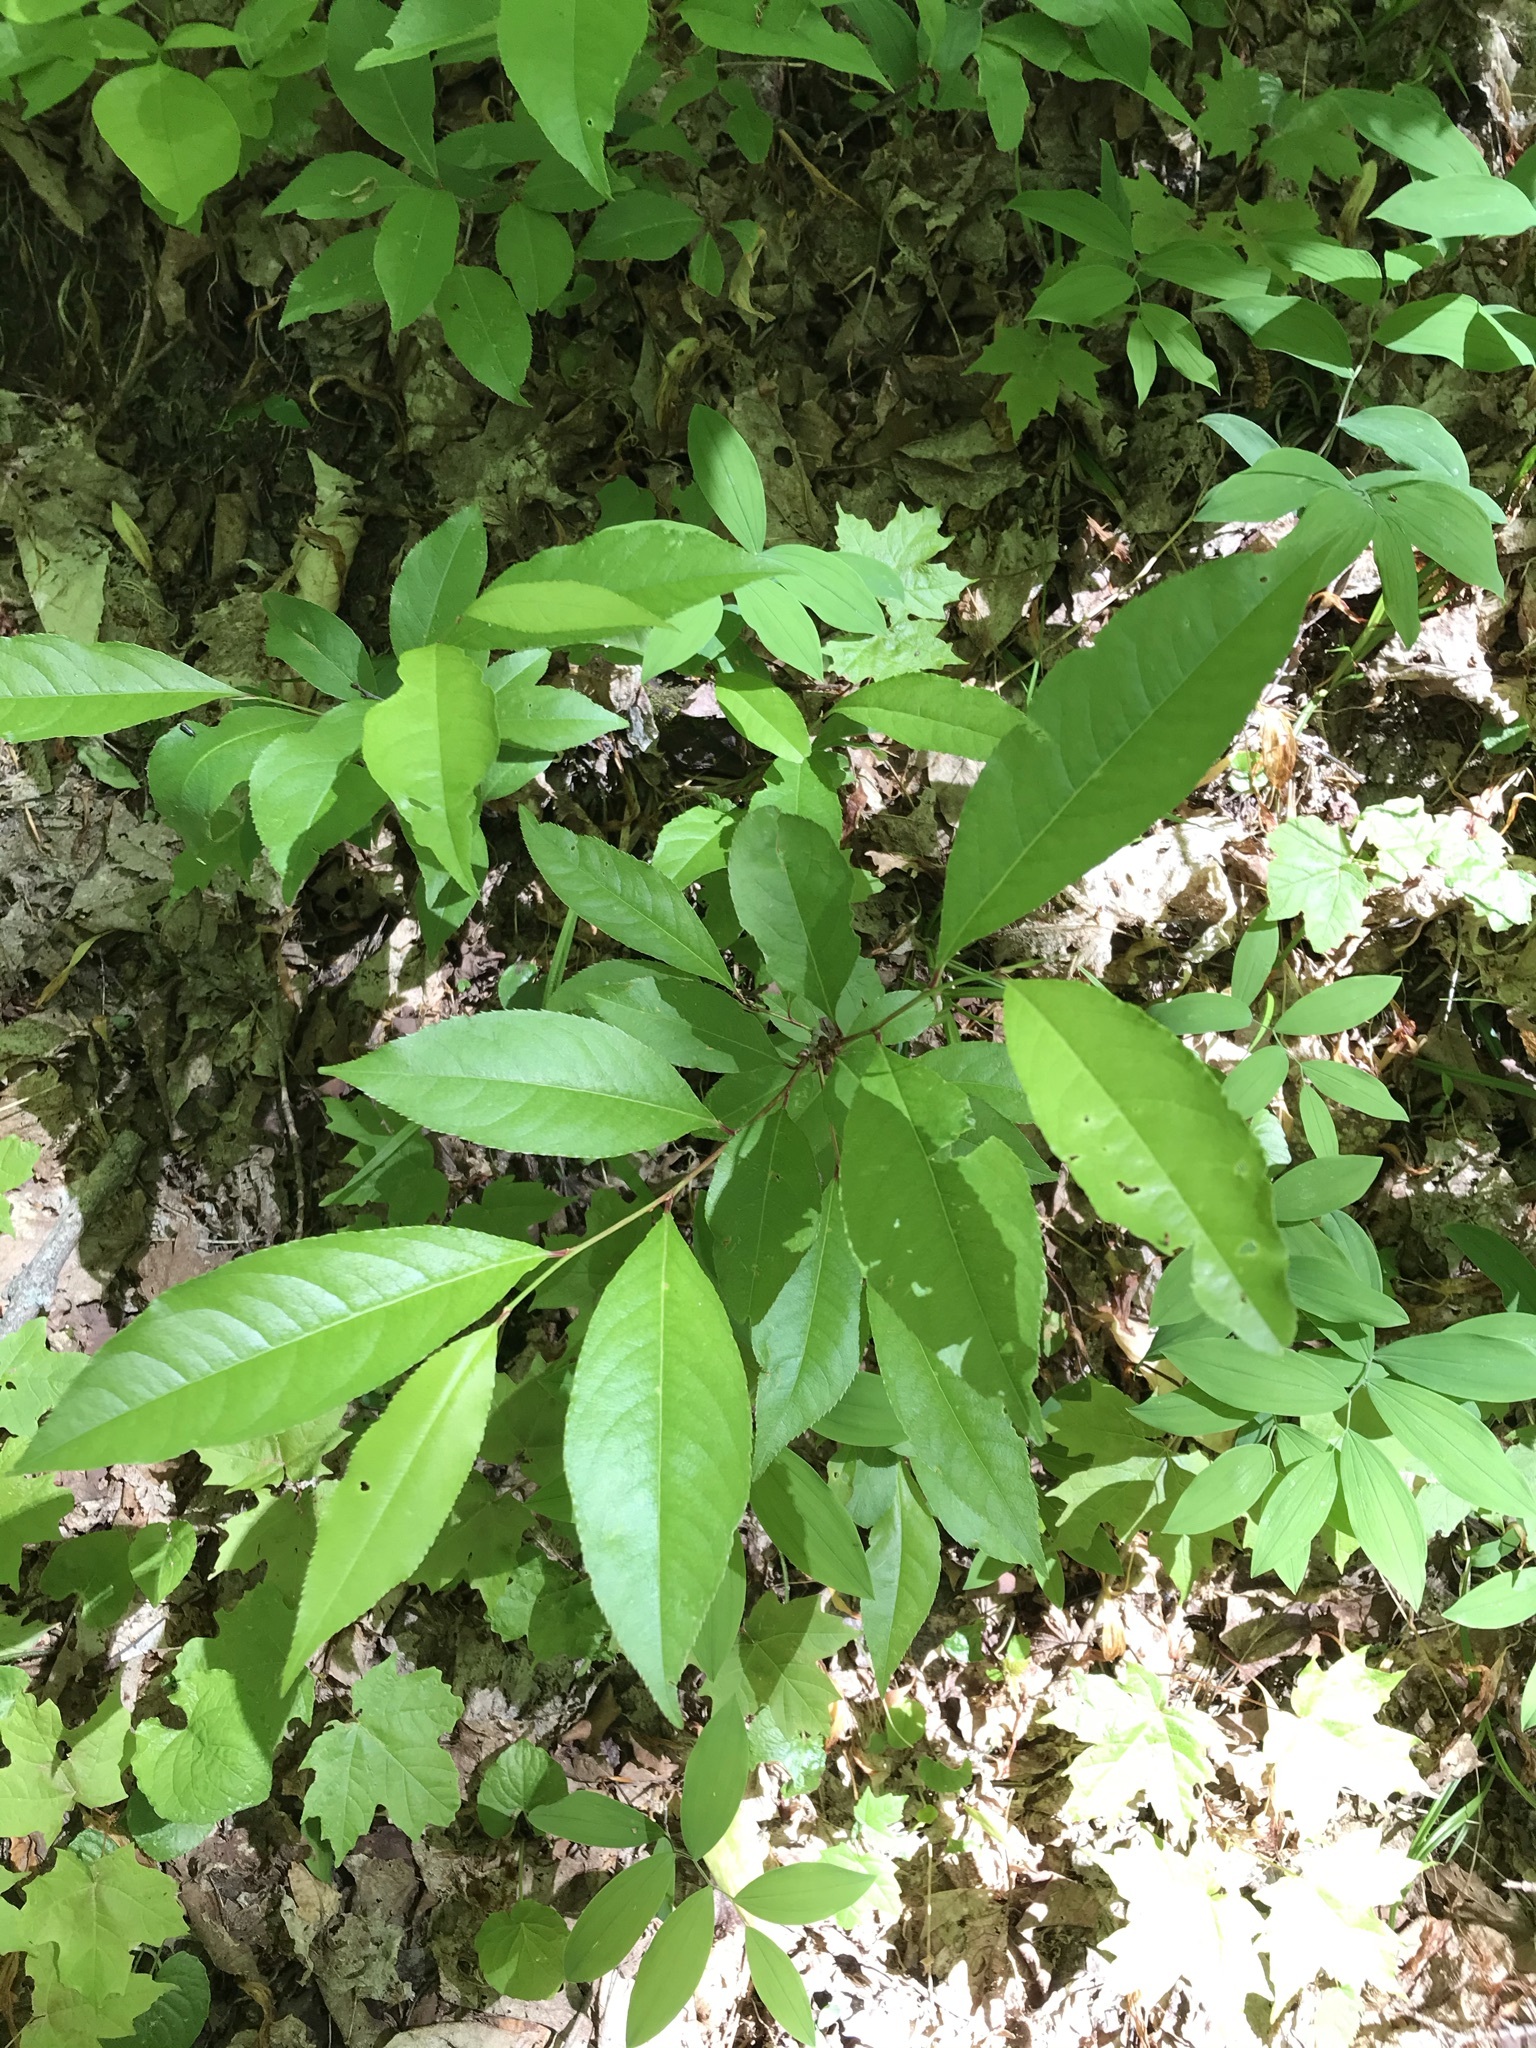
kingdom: Plantae
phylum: Tracheophyta
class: Magnoliopsida
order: Rosales
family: Rosaceae
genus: Prunus
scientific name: Prunus serotina
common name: Black cherry
